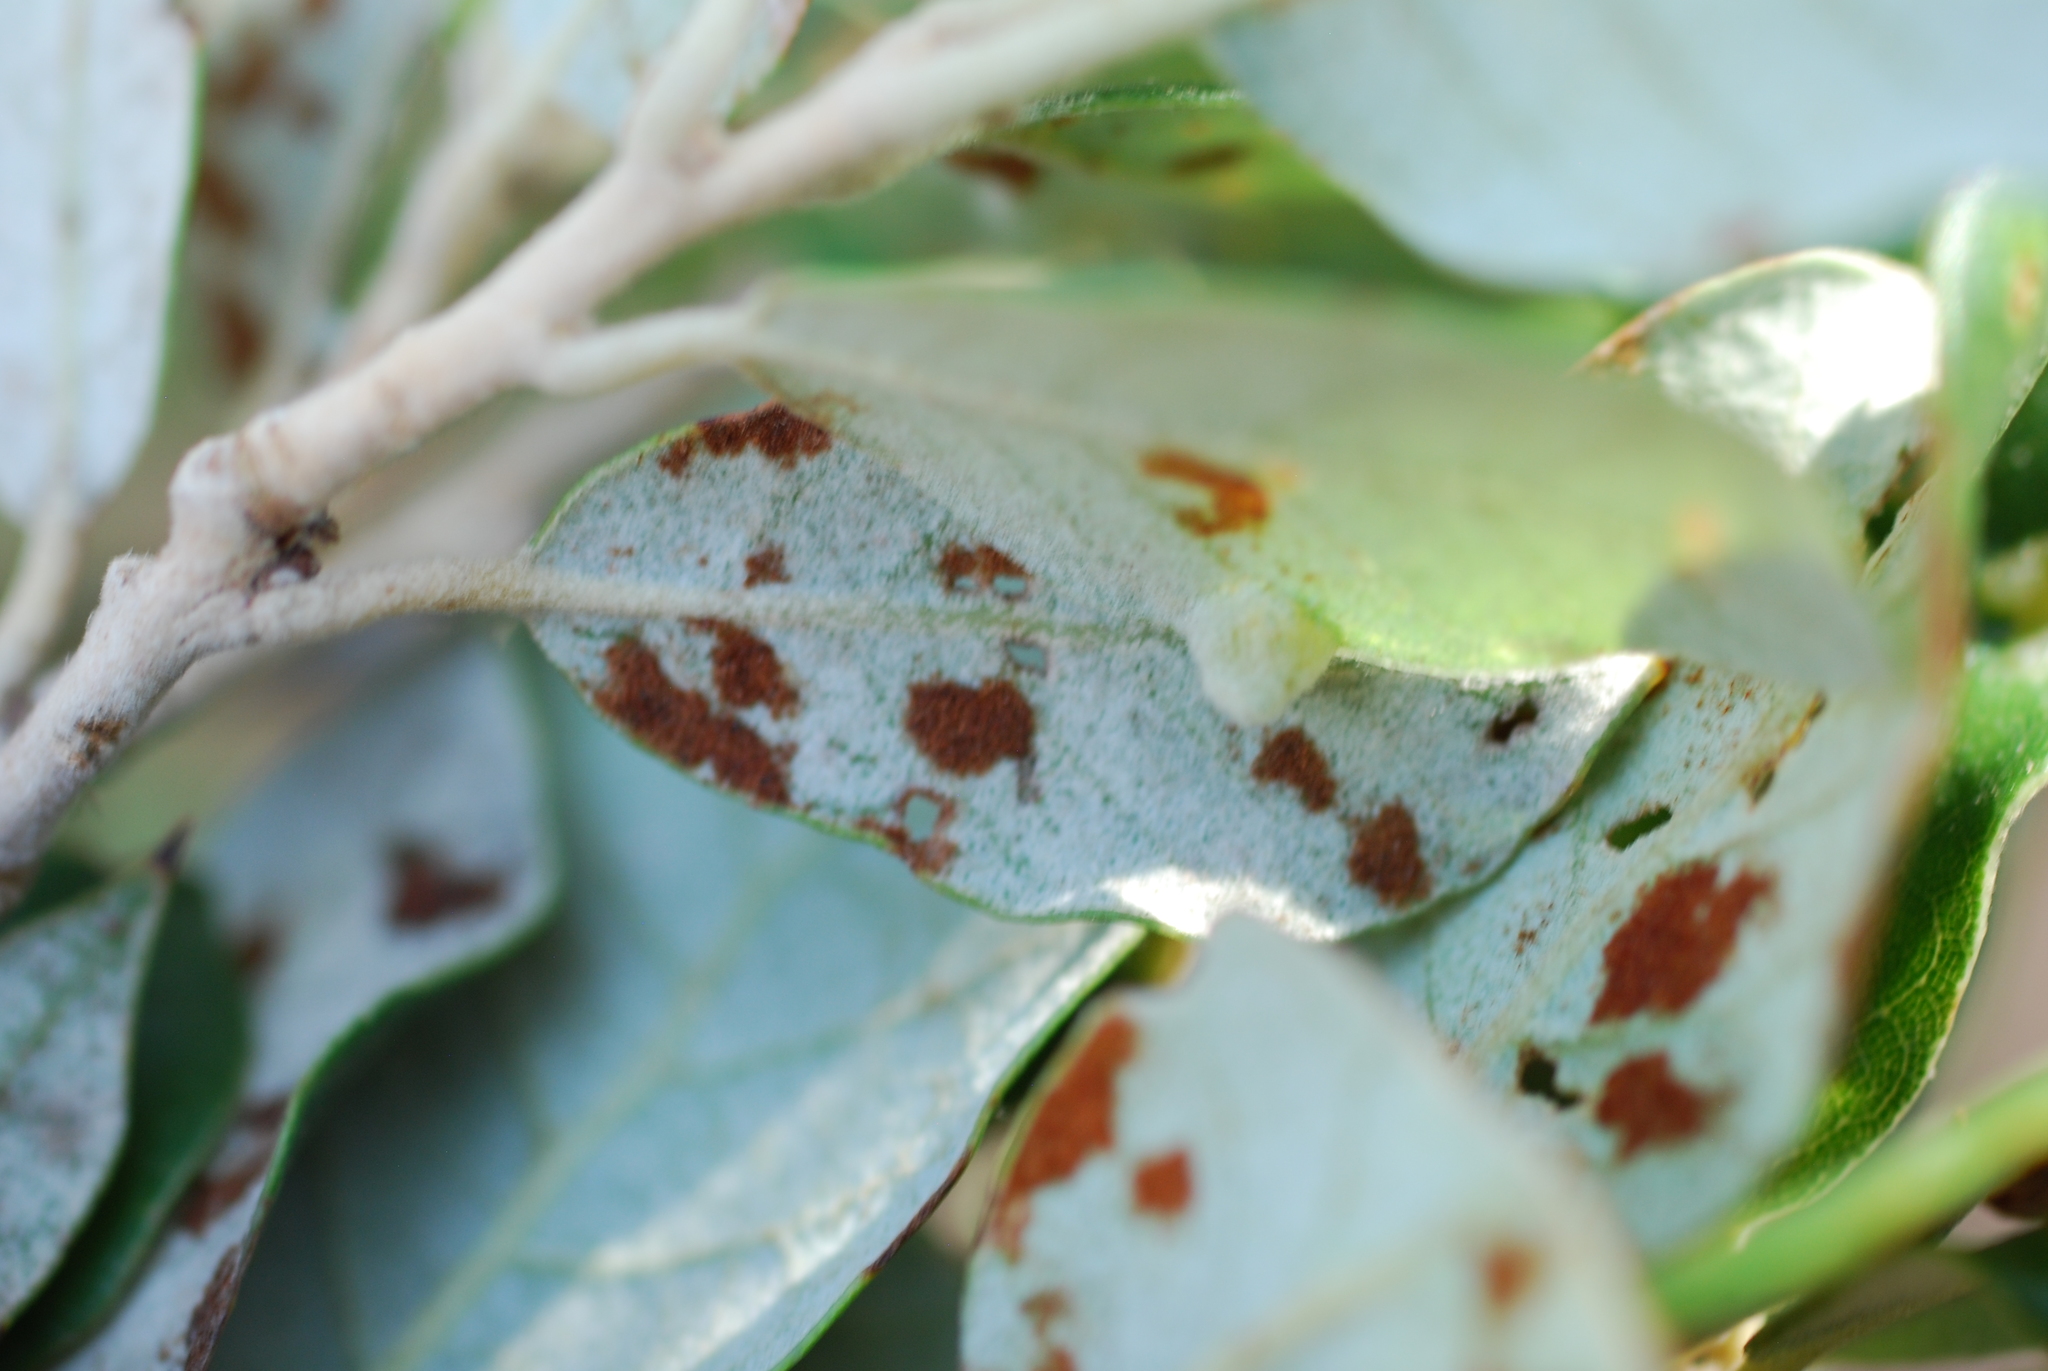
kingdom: Animalia
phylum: Arthropoda
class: Arachnida
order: Trombidiformes
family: Eriophyidae
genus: Aceria
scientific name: Aceria ilicis
